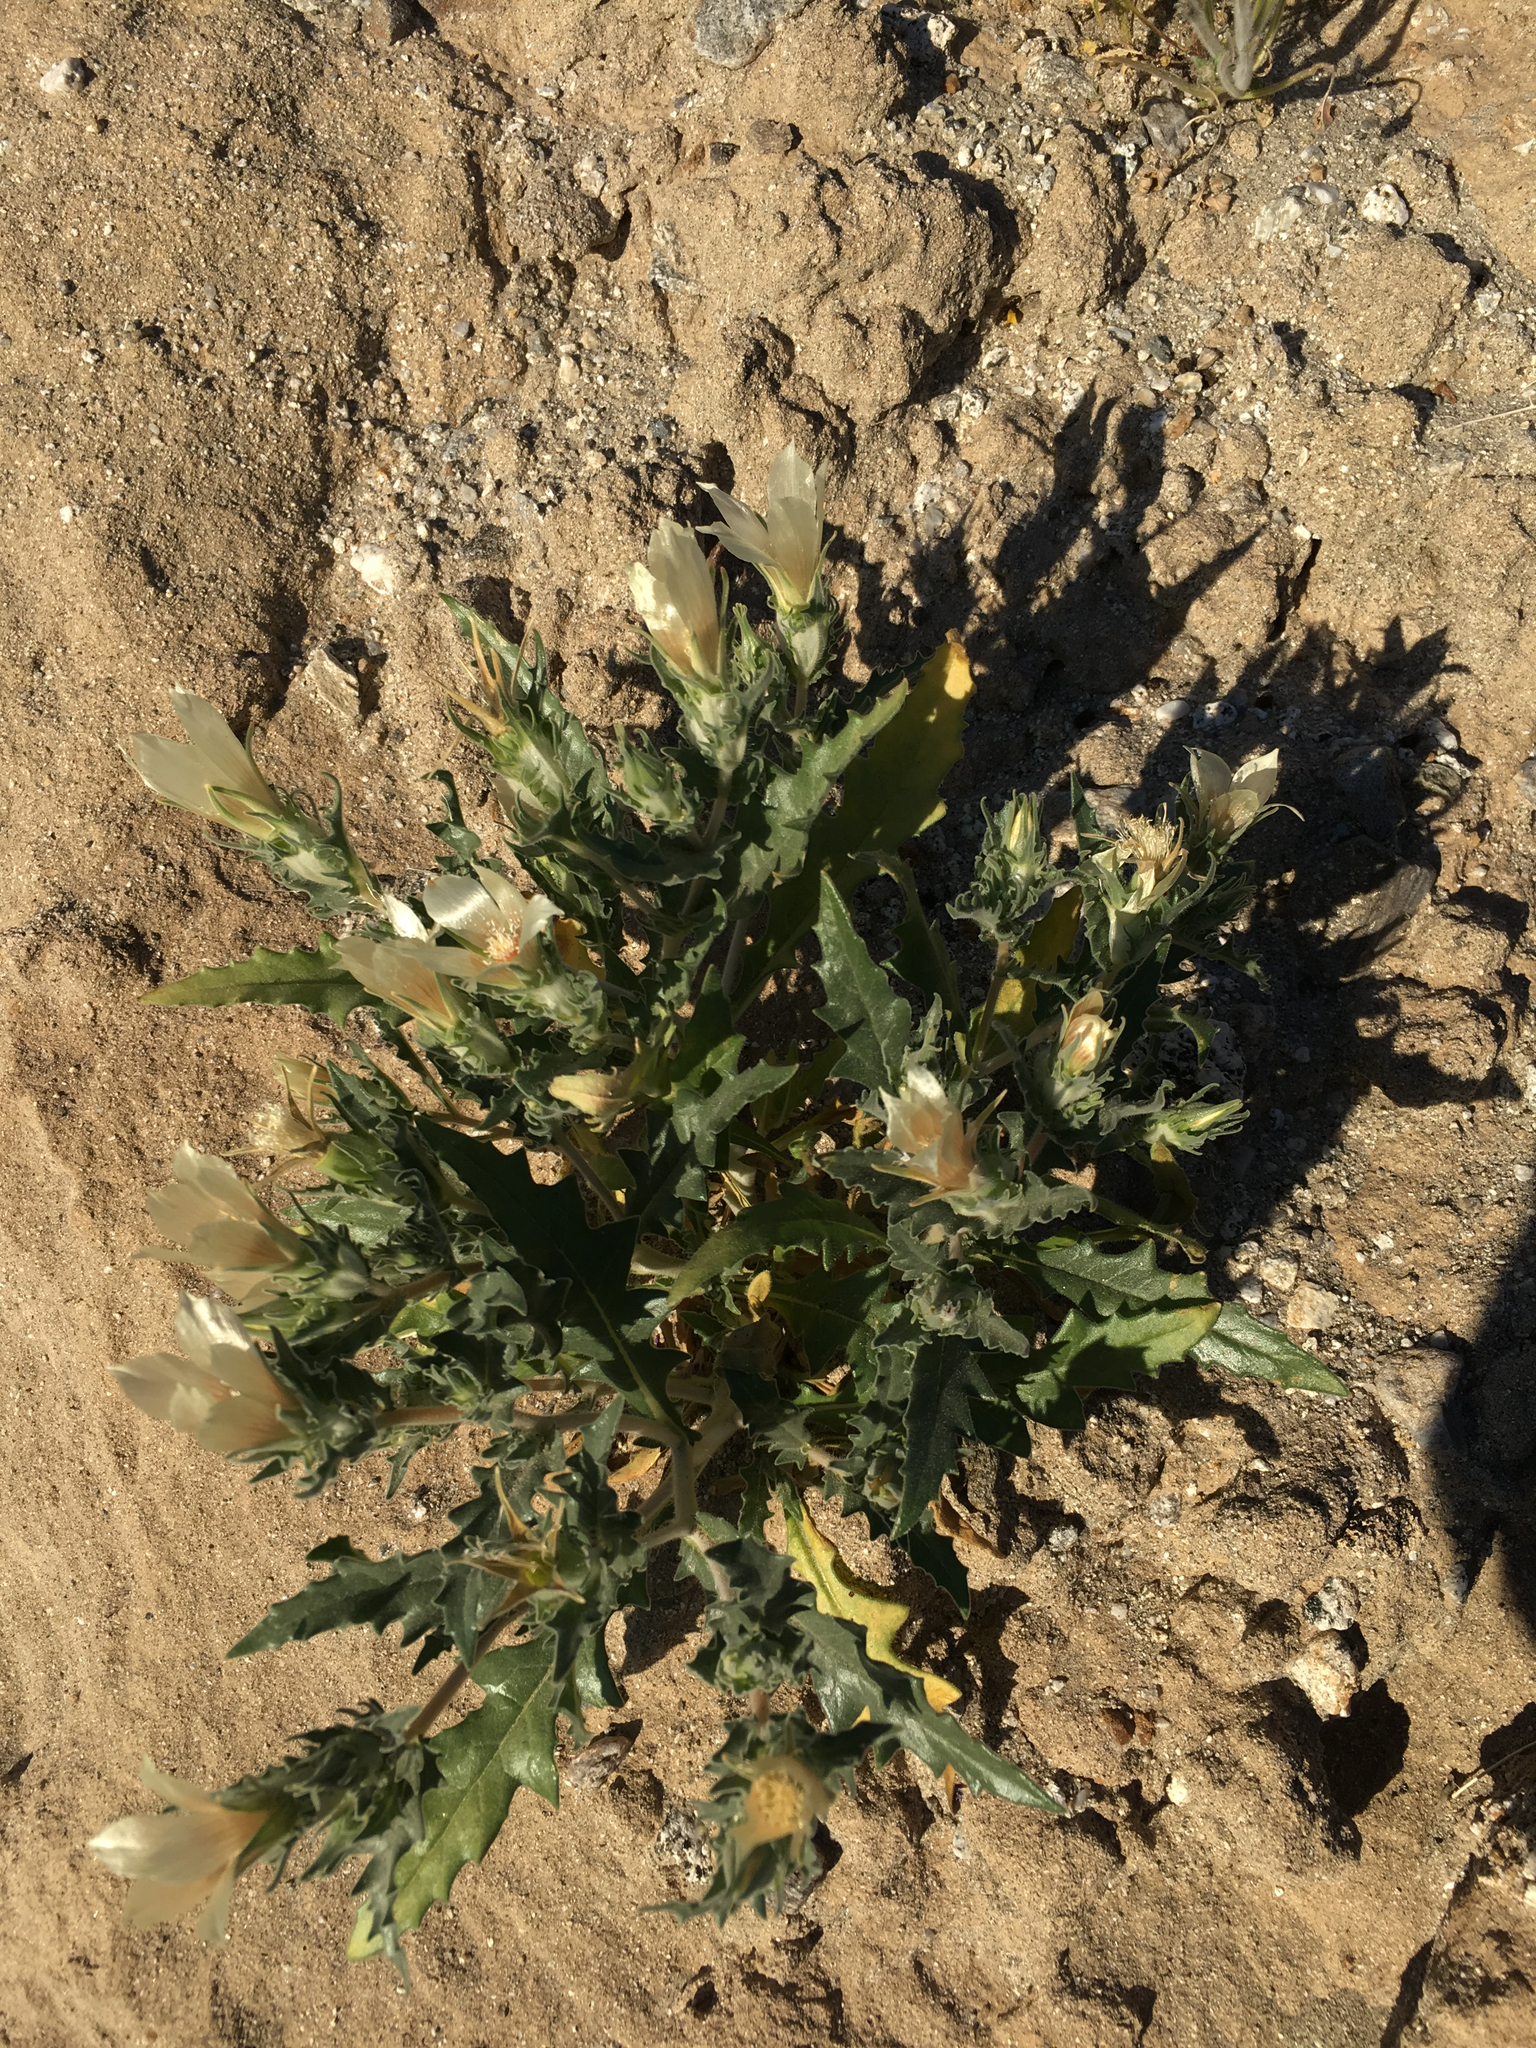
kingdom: Plantae
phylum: Tracheophyta
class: Magnoliopsida
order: Cornales
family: Loasaceae
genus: Mentzelia
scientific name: Mentzelia involucrata
